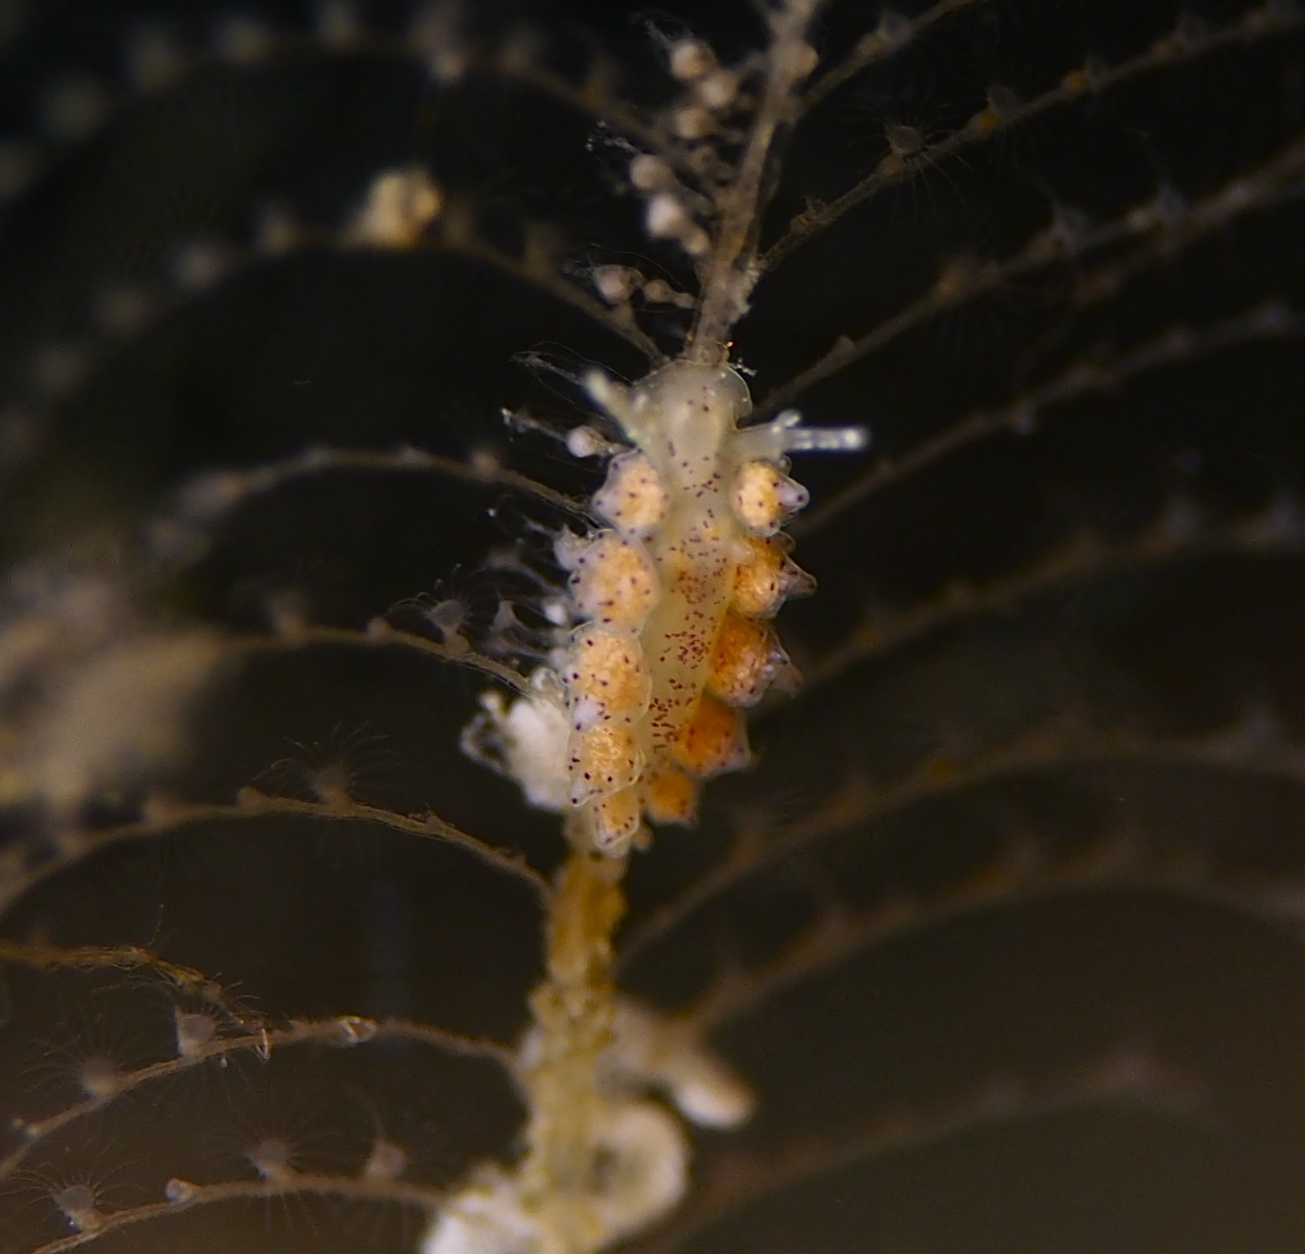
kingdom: Animalia
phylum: Mollusca
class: Gastropoda
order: Nudibranchia
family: Dotidae
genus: Doto
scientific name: Doto dunnei
